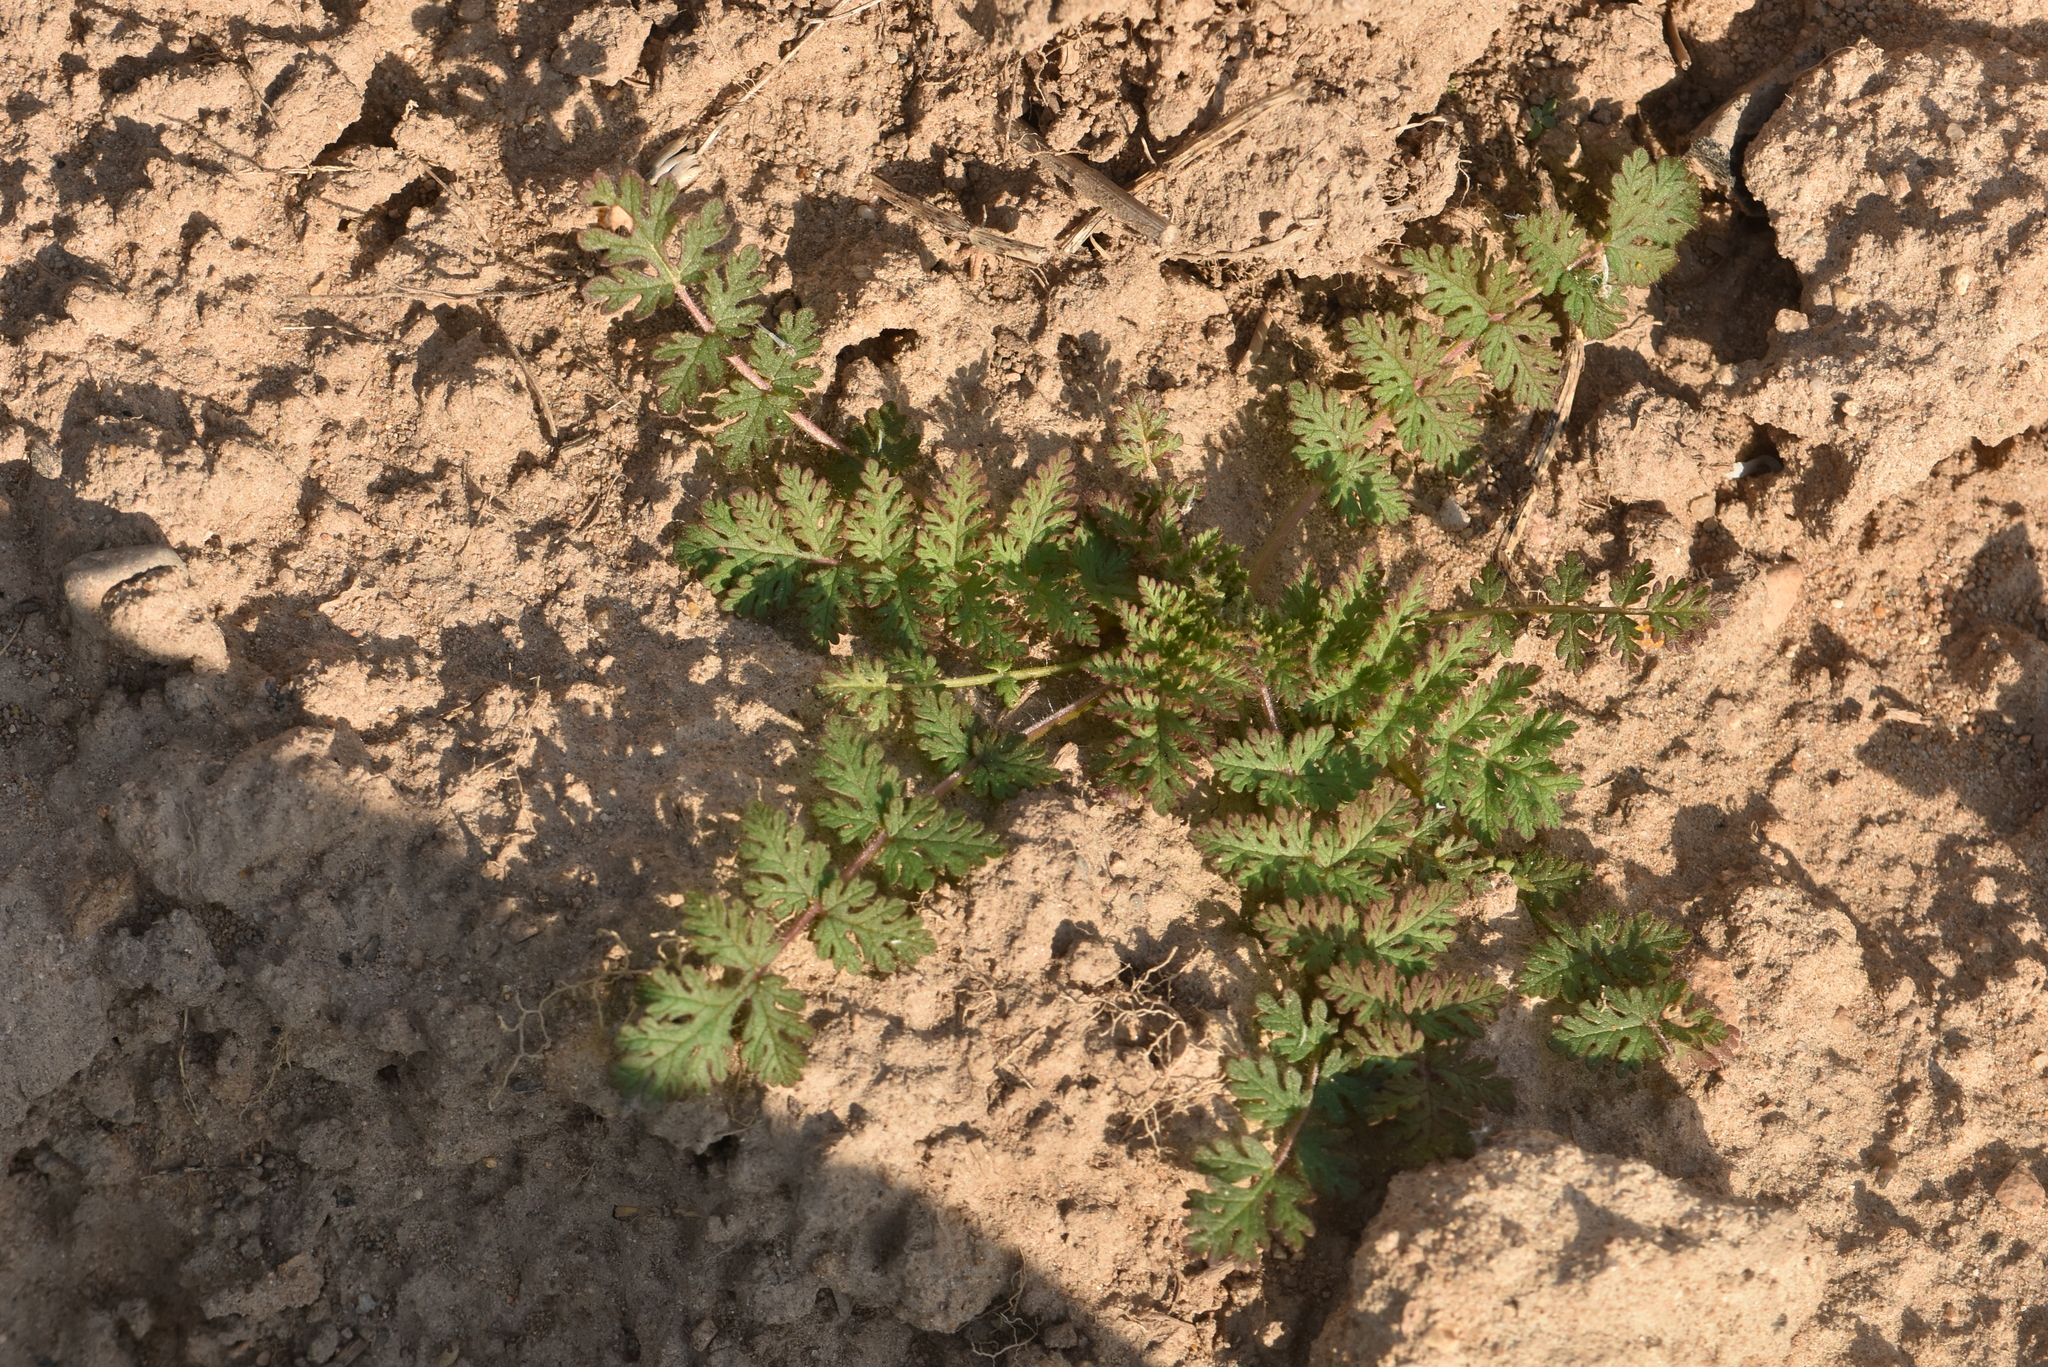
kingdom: Plantae
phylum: Tracheophyta
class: Magnoliopsida
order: Geraniales
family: Geraniaceae
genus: Erodium
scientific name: Erodium cicutarium
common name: Common stork's-bill
